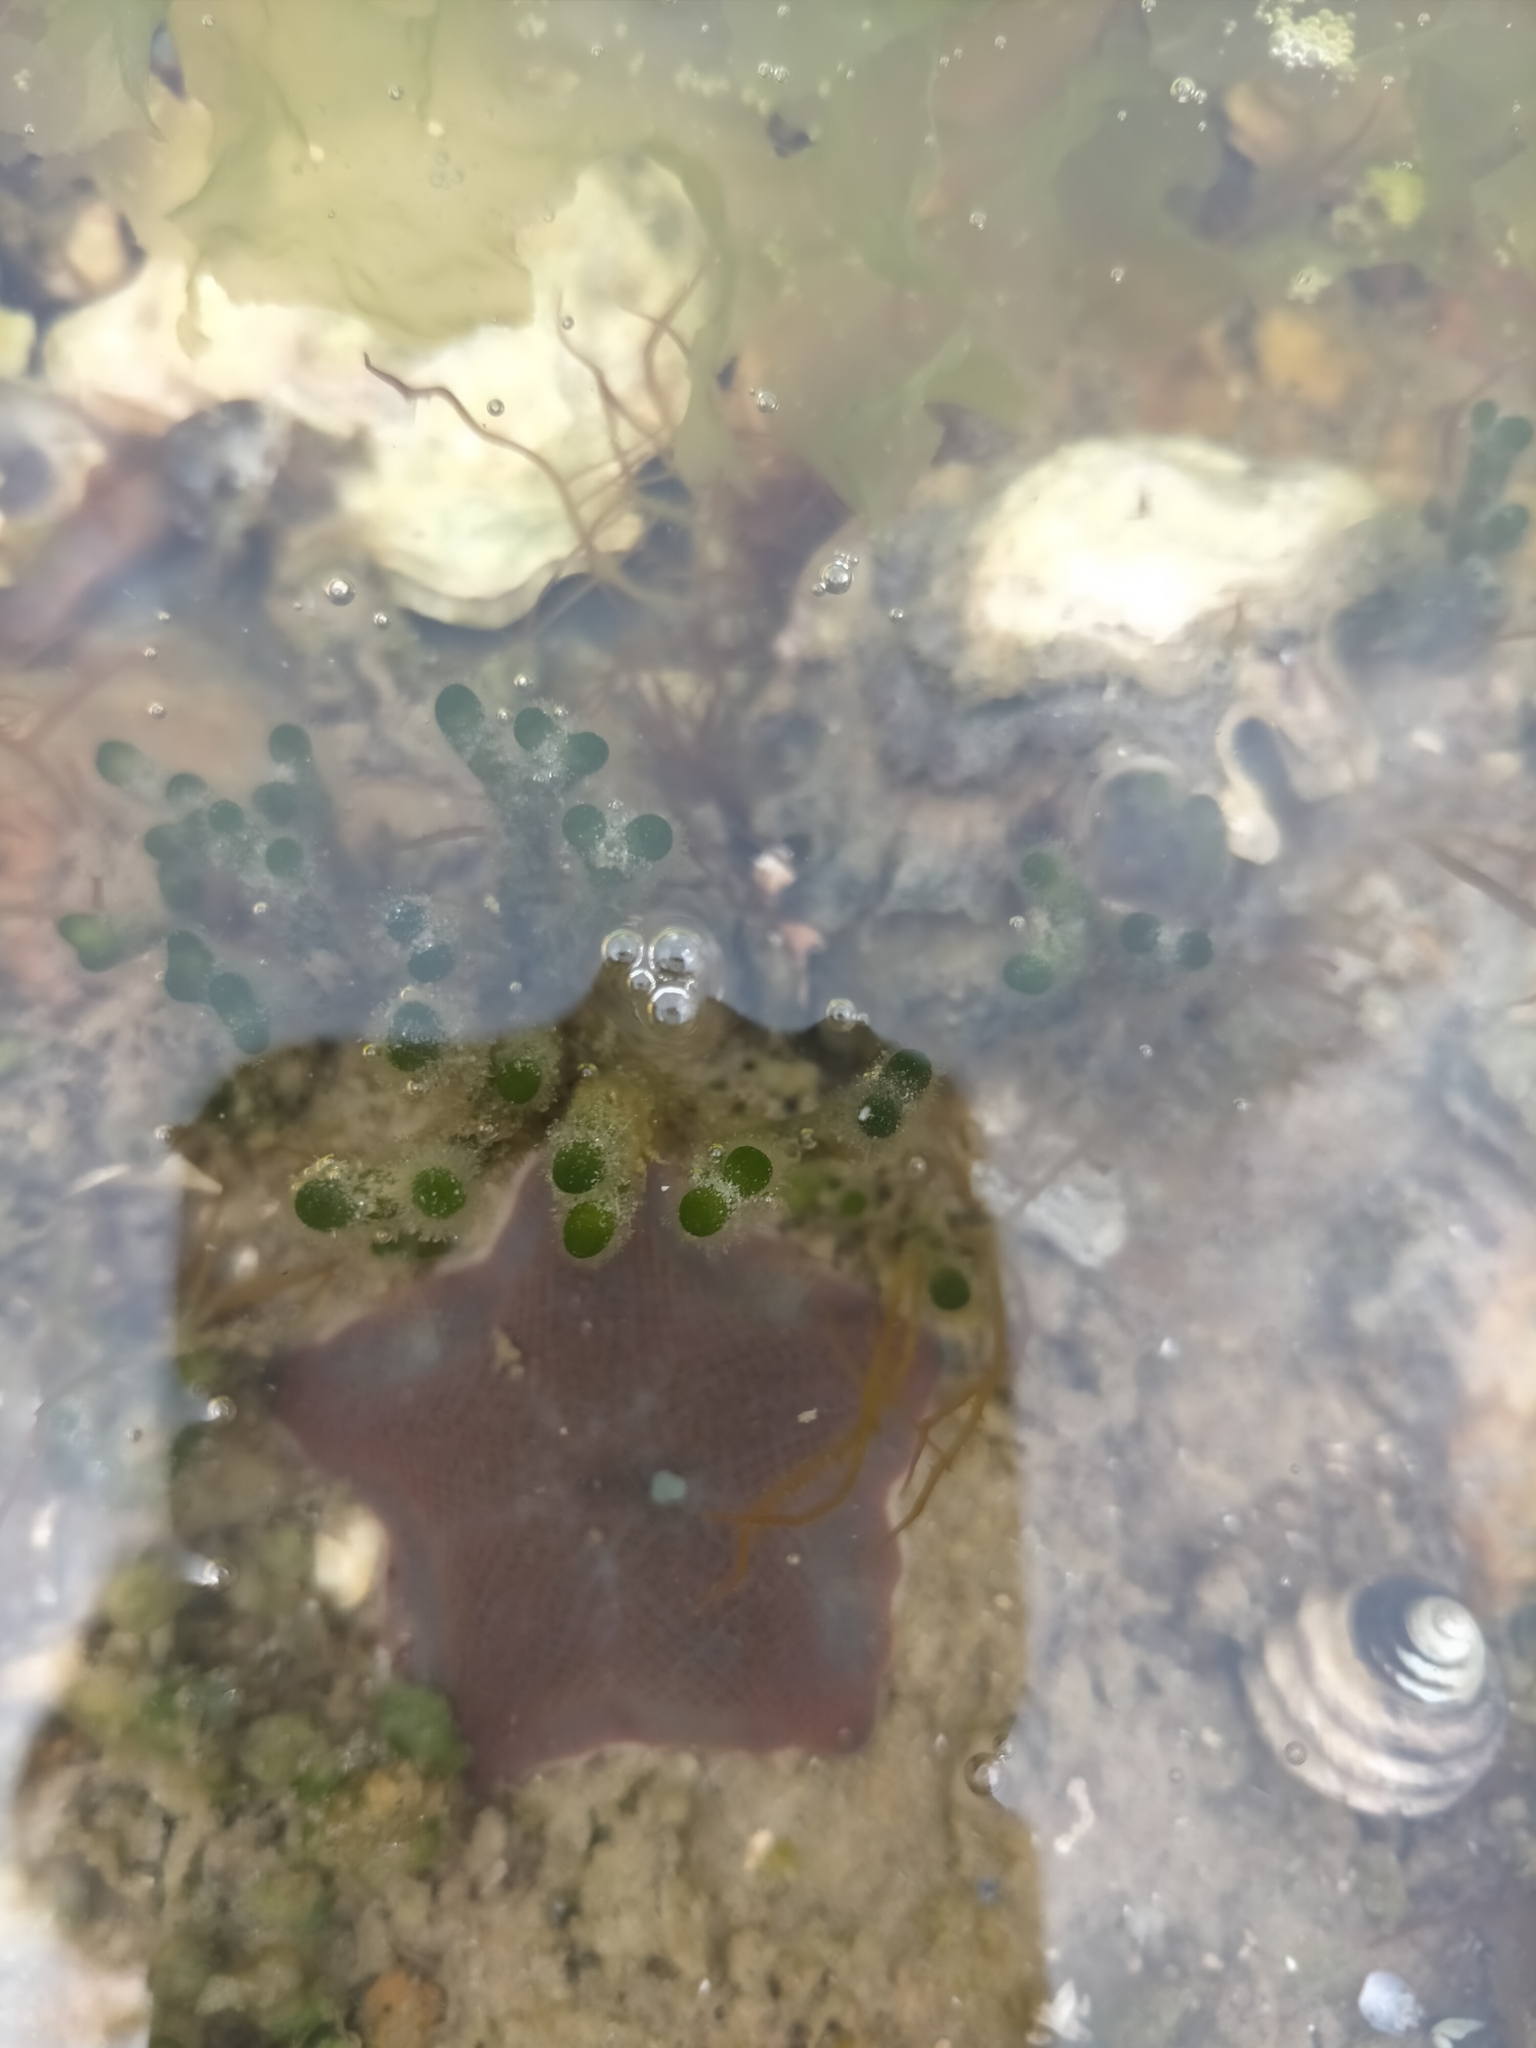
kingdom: Animalia
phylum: Echinodermata
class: Asteroidea
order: Valvatida
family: Asterinidae
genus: Patiriella
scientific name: Patiriella regularis
